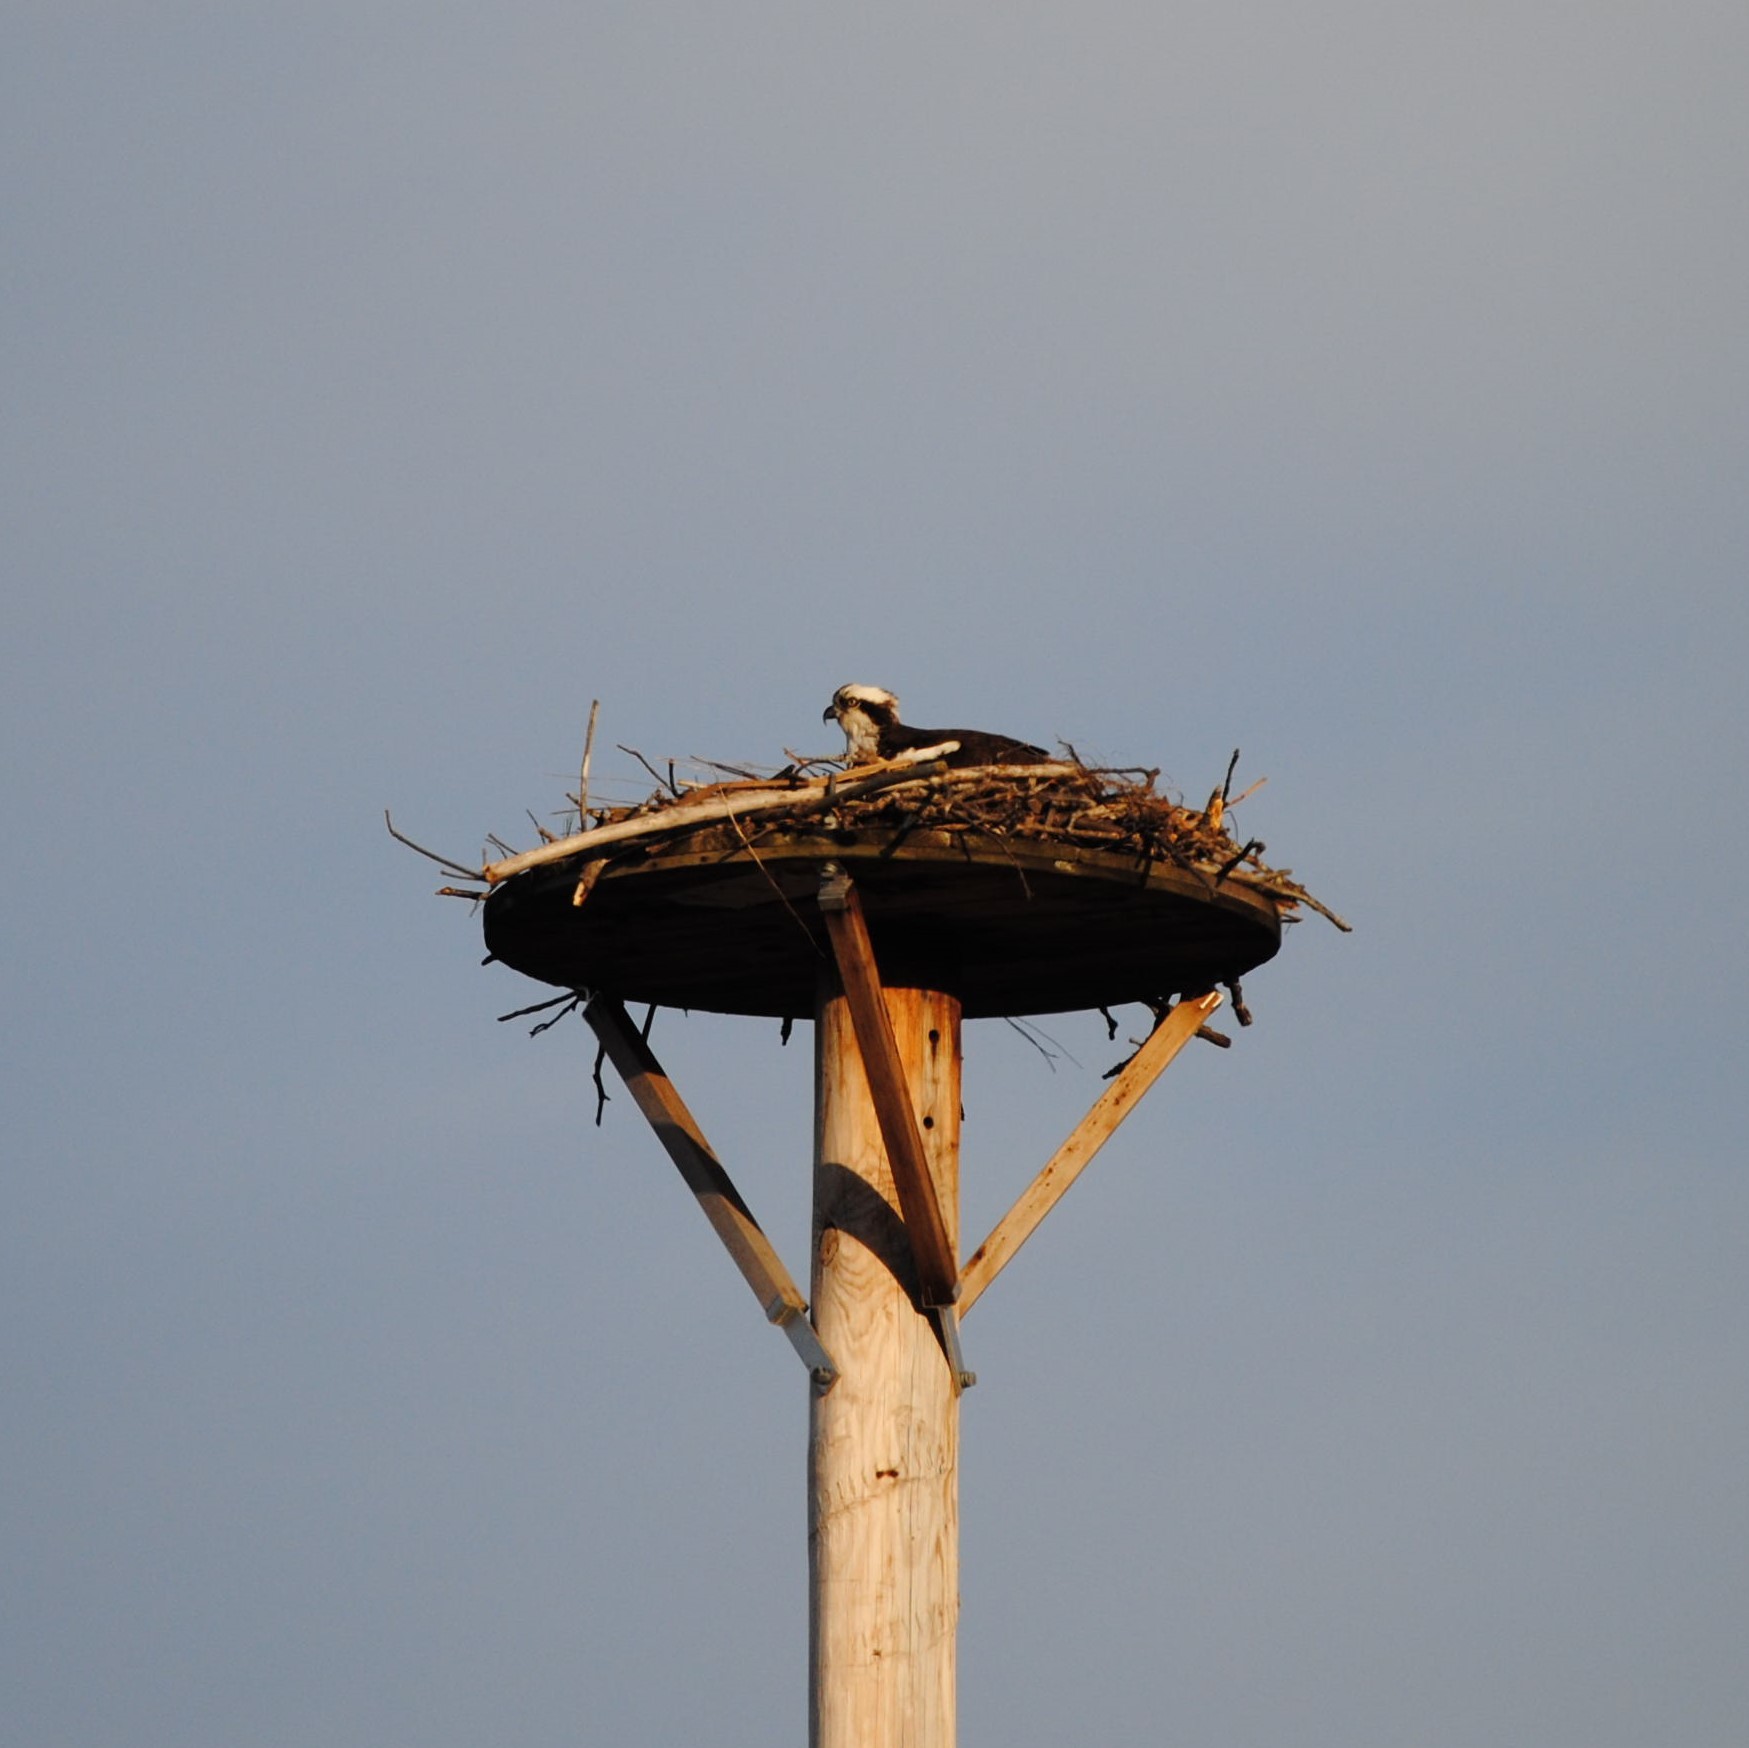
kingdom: Animalia
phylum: Chordata
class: Aves
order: Accipitriformes
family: Pandionidae
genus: Pandion
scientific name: Pandion haliaetus
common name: Osprey
